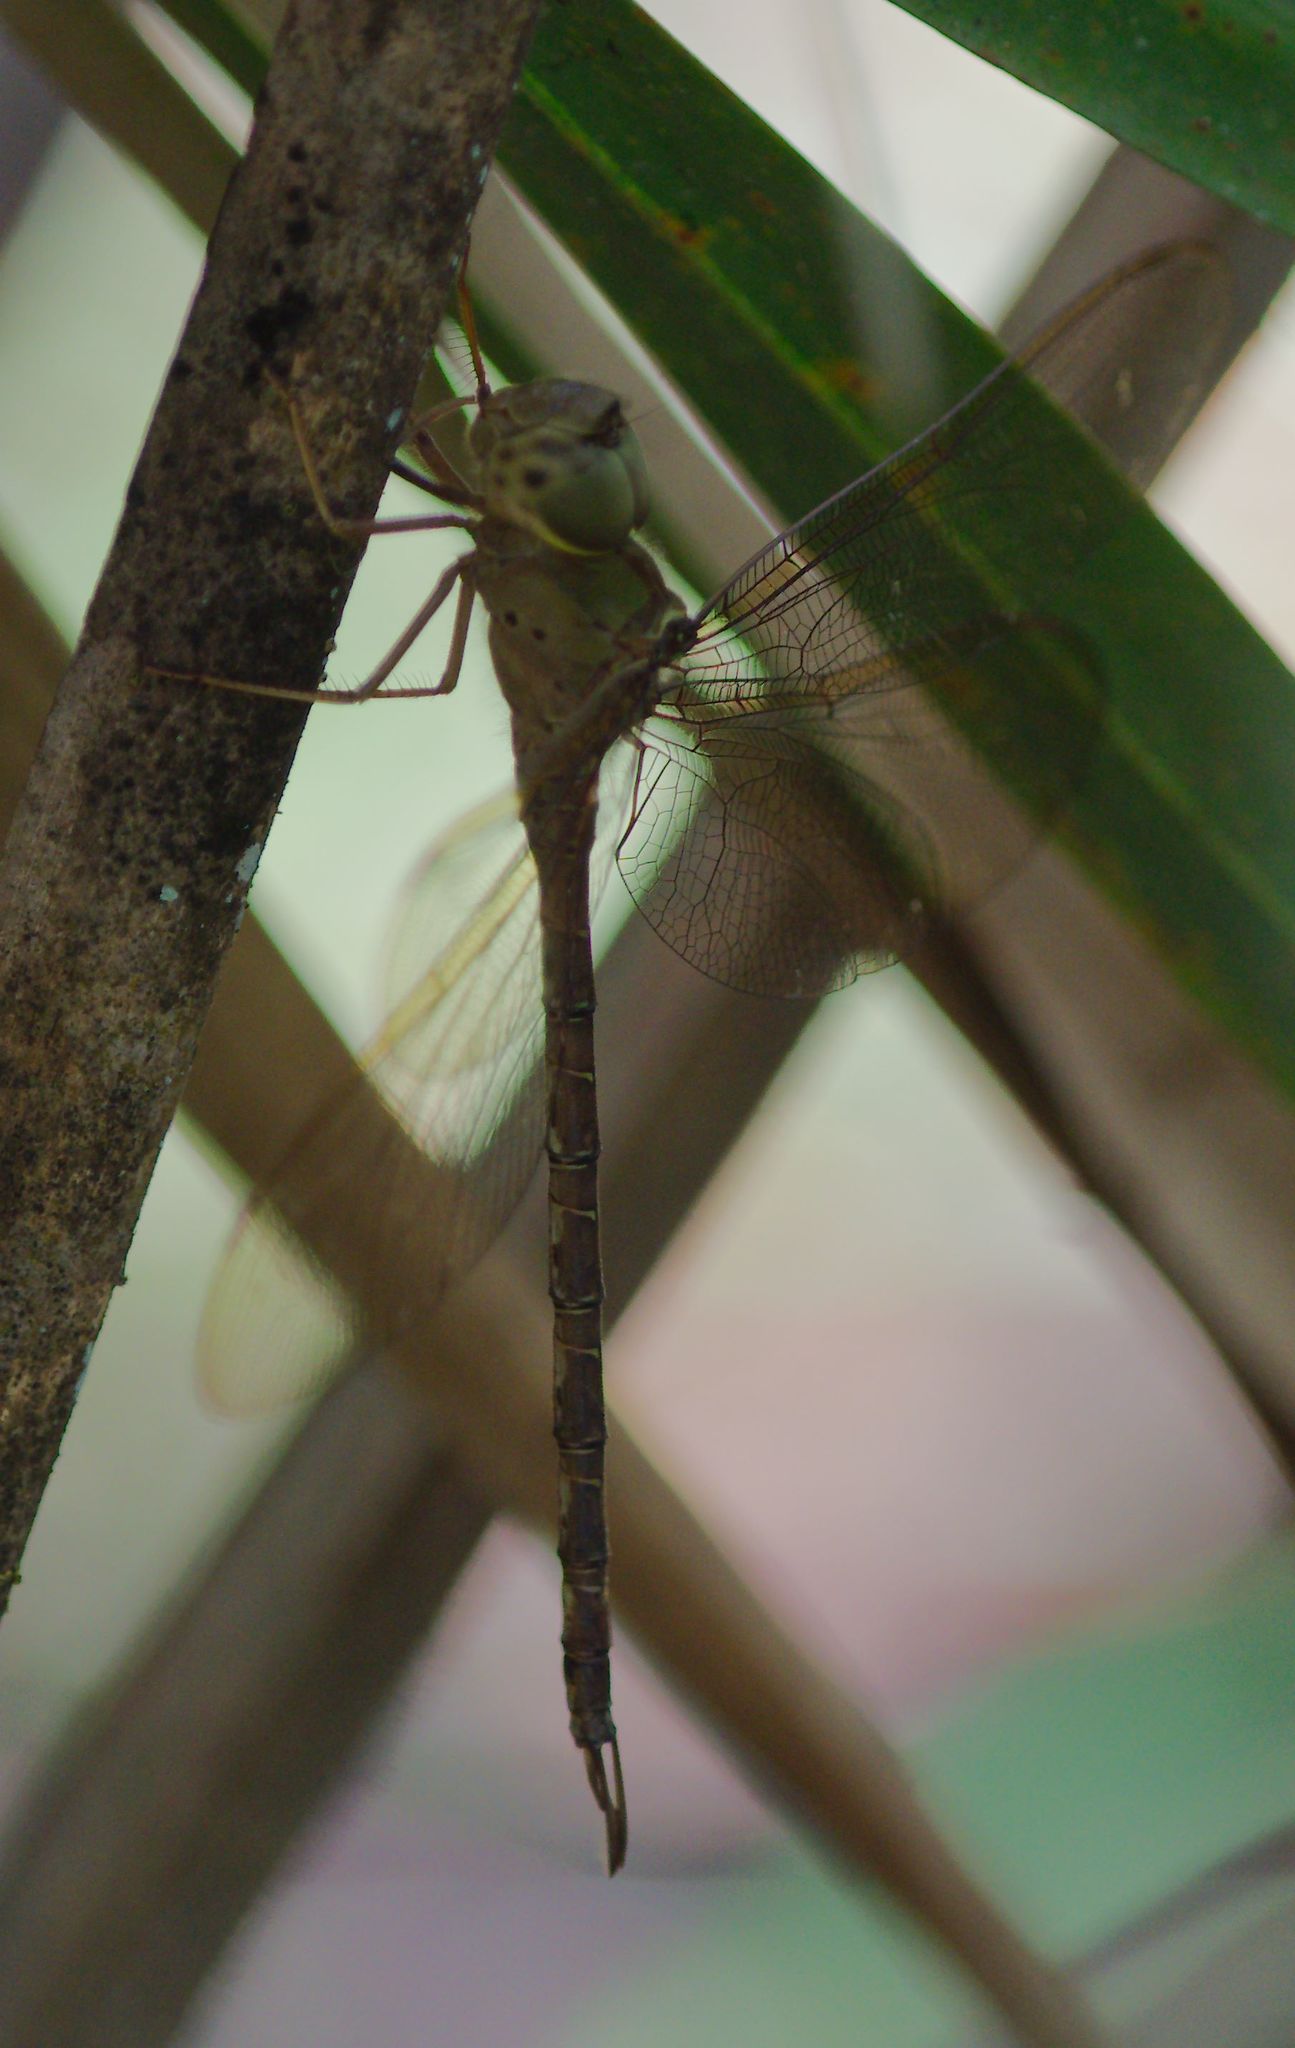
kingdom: Animalia
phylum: Arthropoda
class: Insecta
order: Odonata
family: Aeshnidae
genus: Gynacantha
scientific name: Gynacantha nervosa
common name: Twilight darner
